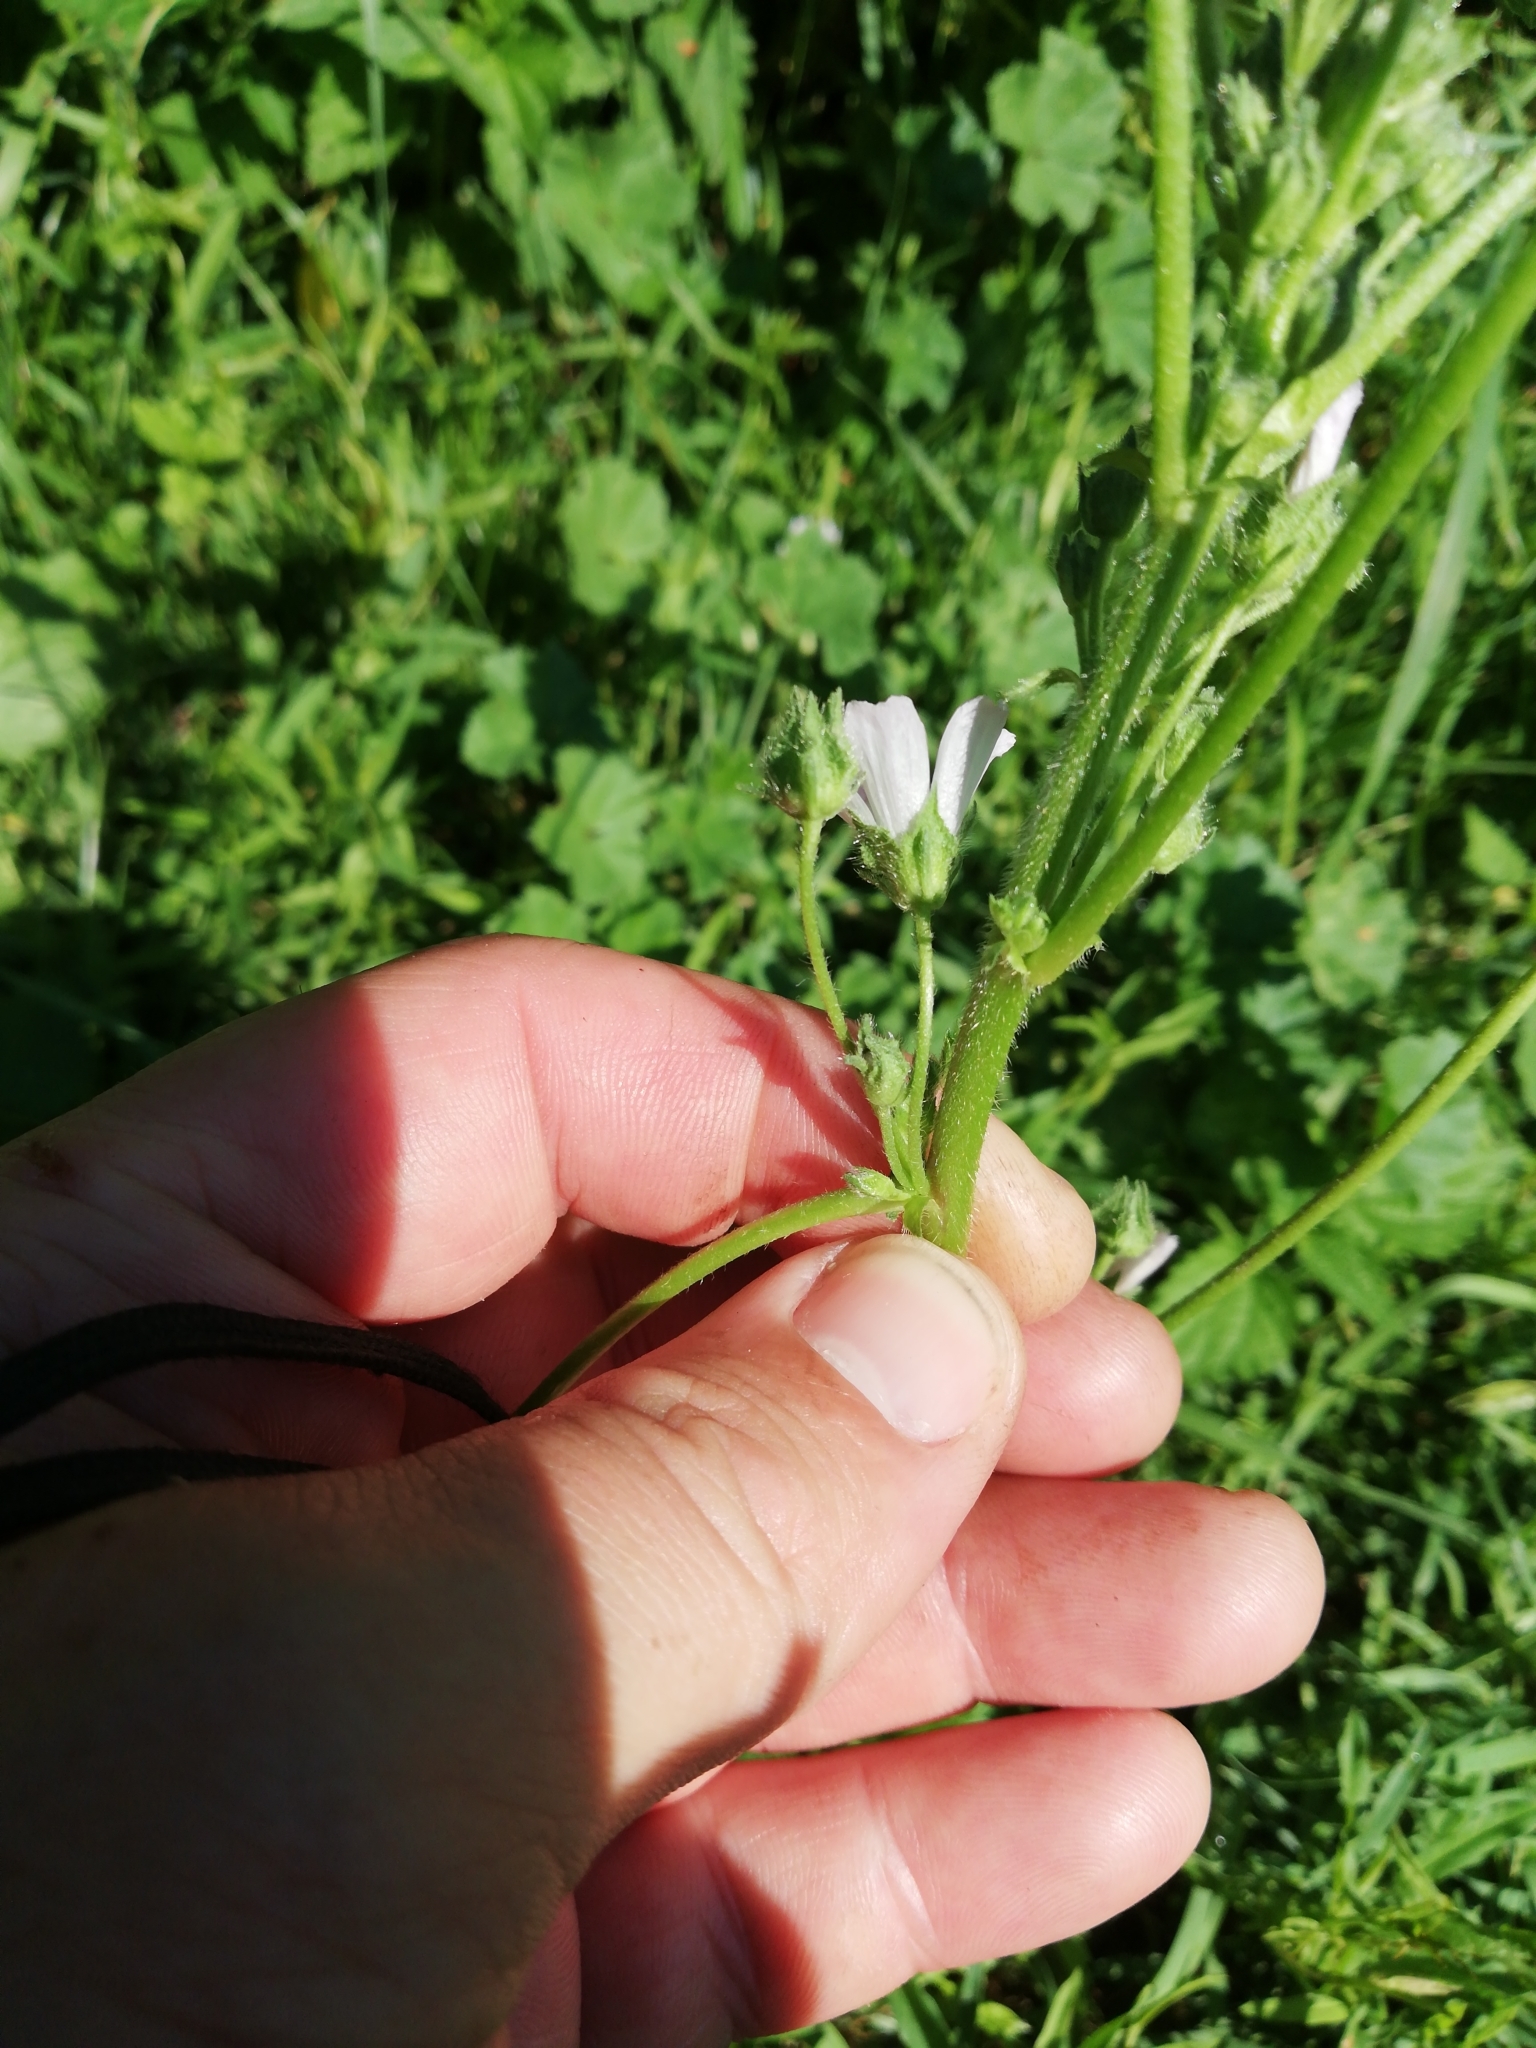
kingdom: Plantae
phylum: Tracheophyta
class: Magnoliopsida
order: Malvales
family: Malvaceae
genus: Malva
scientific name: Malva neglecta
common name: Common mallow
